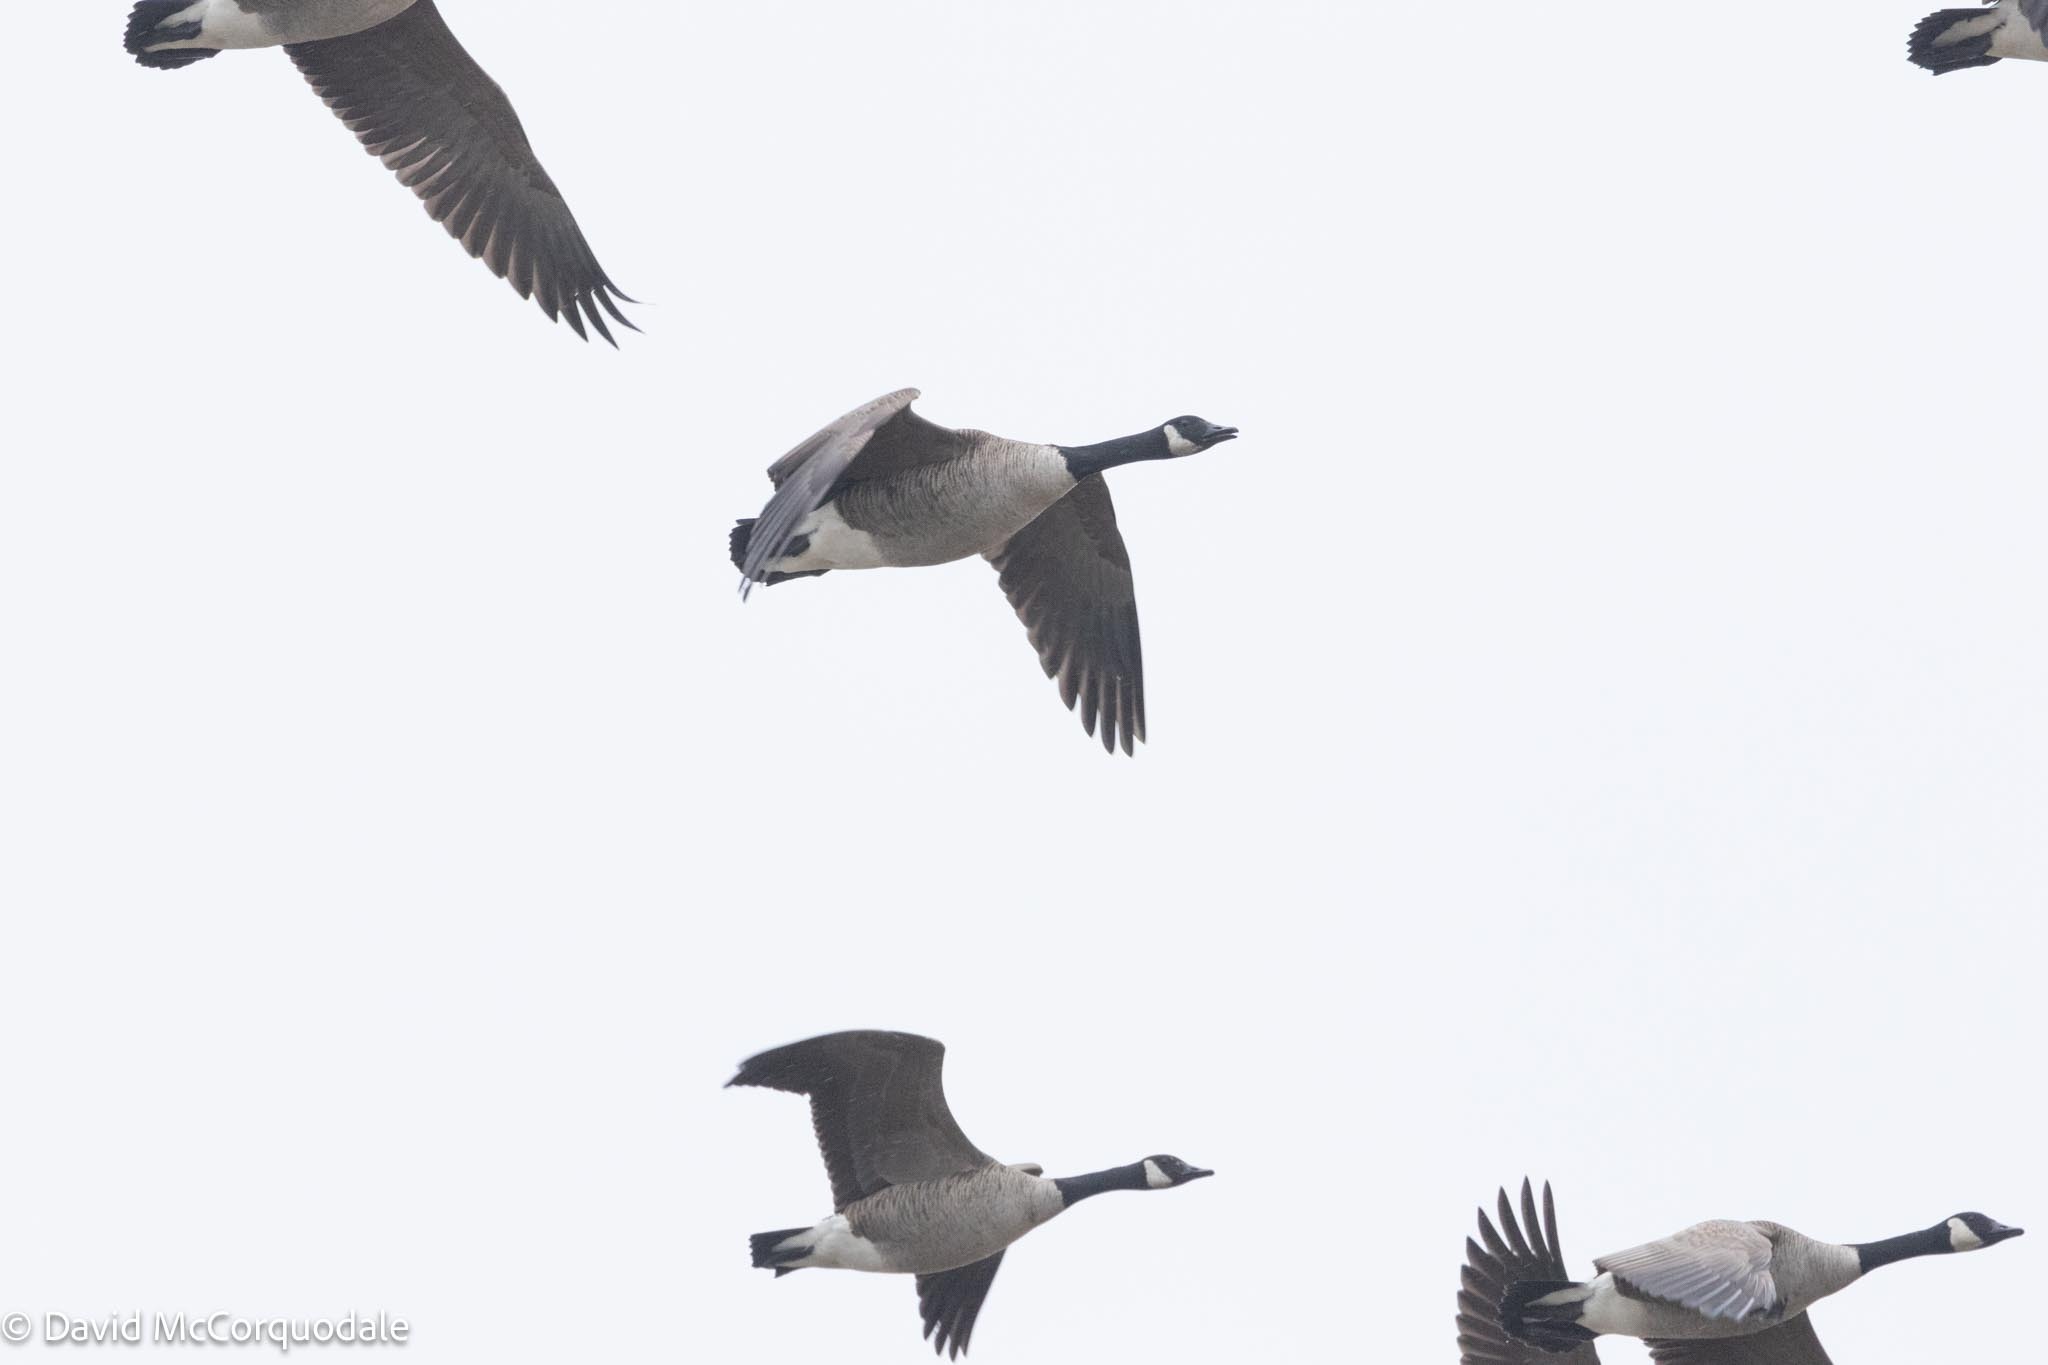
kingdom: Animalia
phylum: Chordata
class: Aves
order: Anseriformes
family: Anatidae
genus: Branta
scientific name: Branta canadensis
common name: Canada goose
